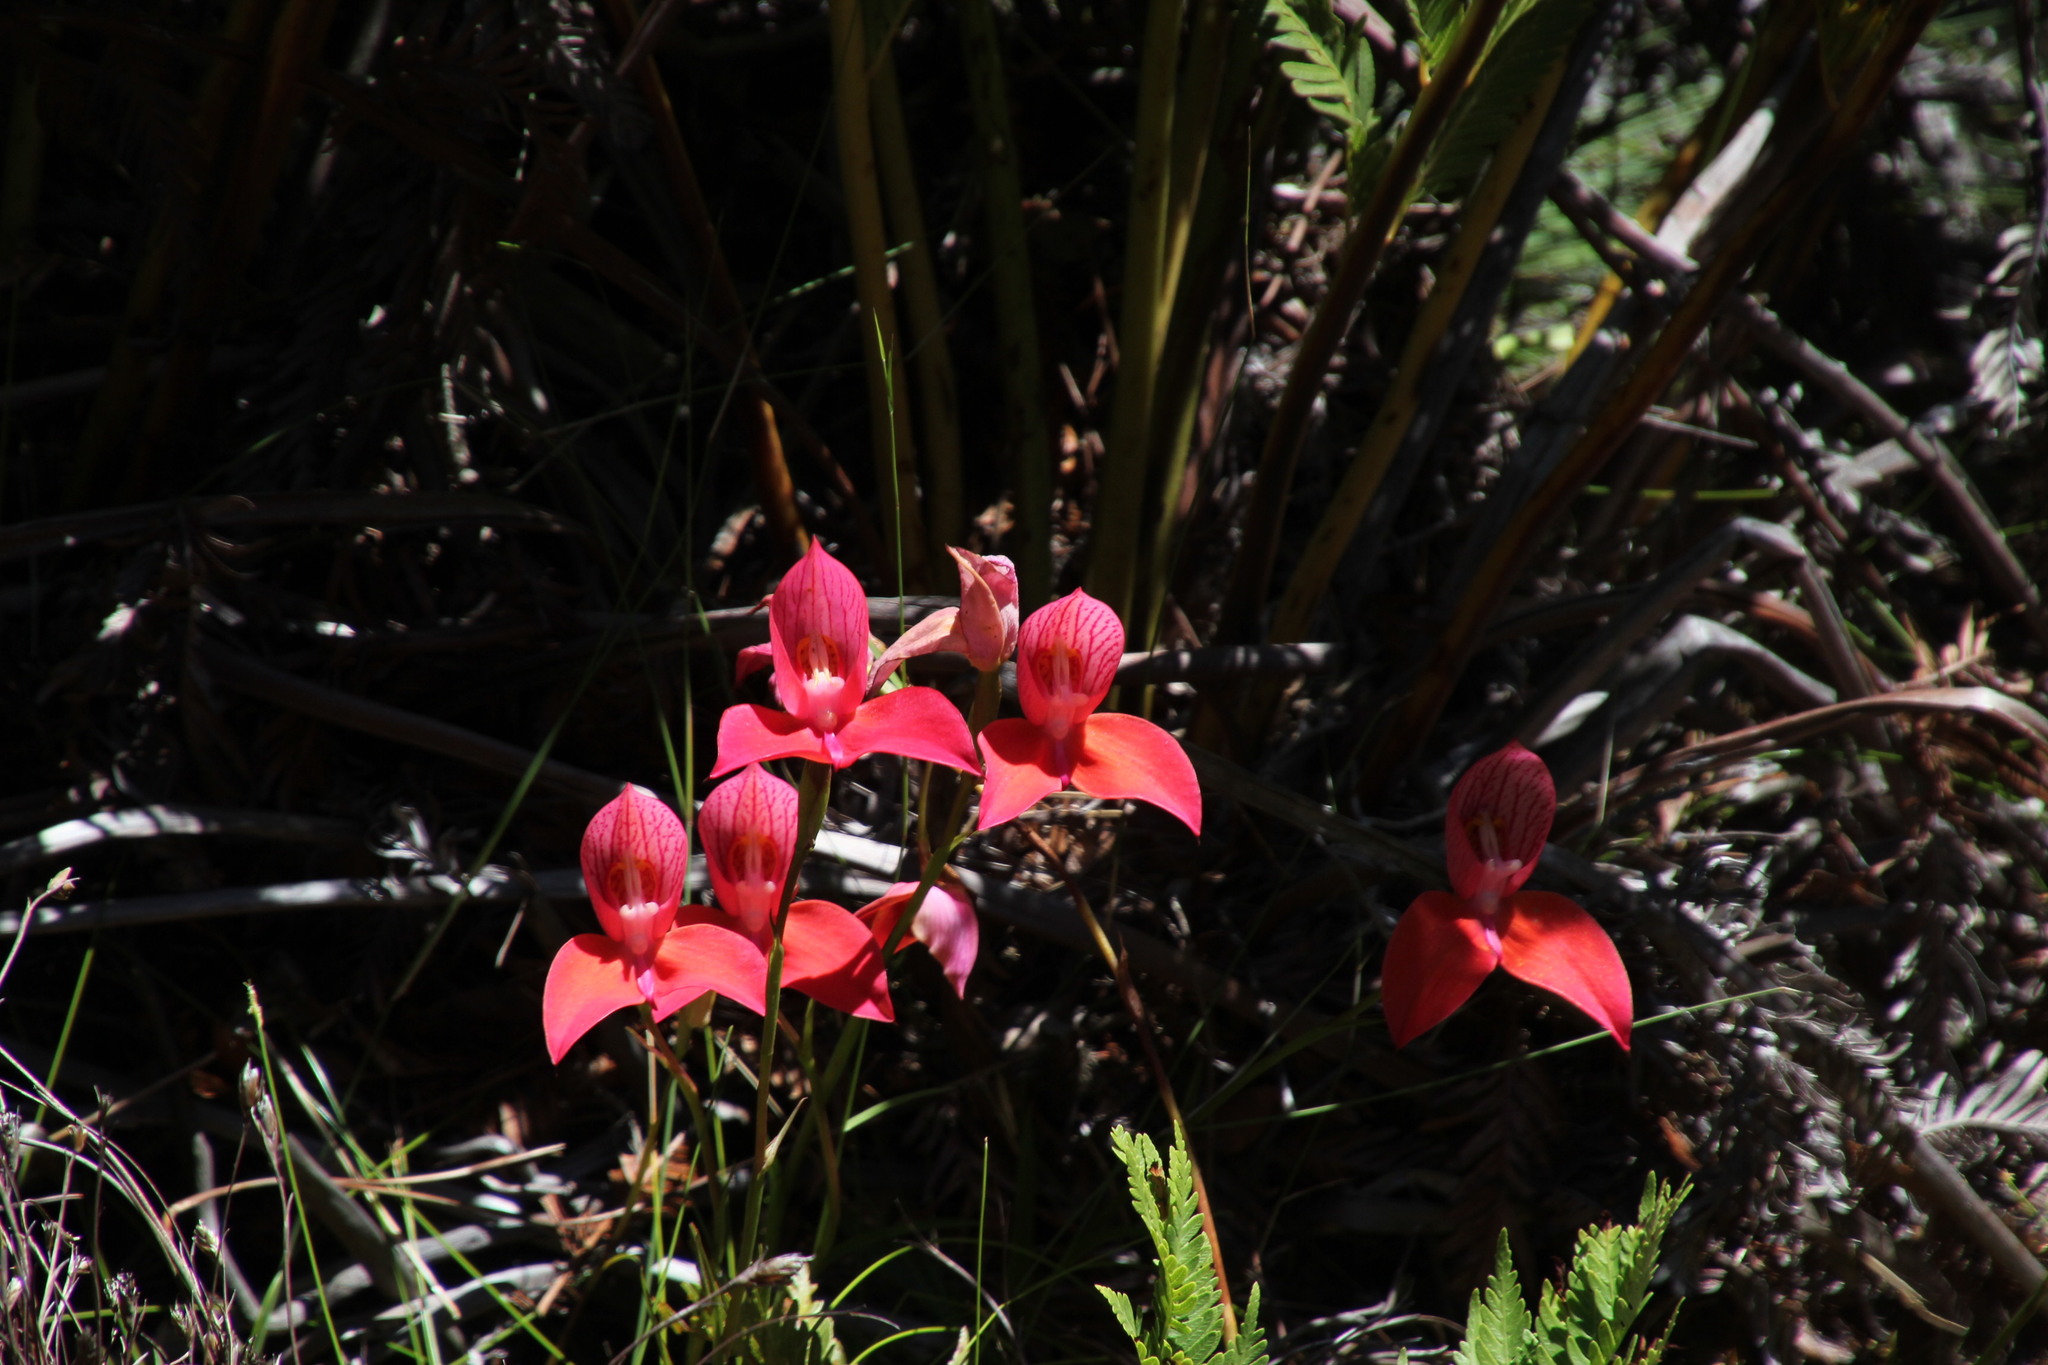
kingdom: Plantae
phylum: Tracheophyta
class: Liliopsida
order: Asparagales
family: Orchidaceae
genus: Disa
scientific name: Disa uniflora
